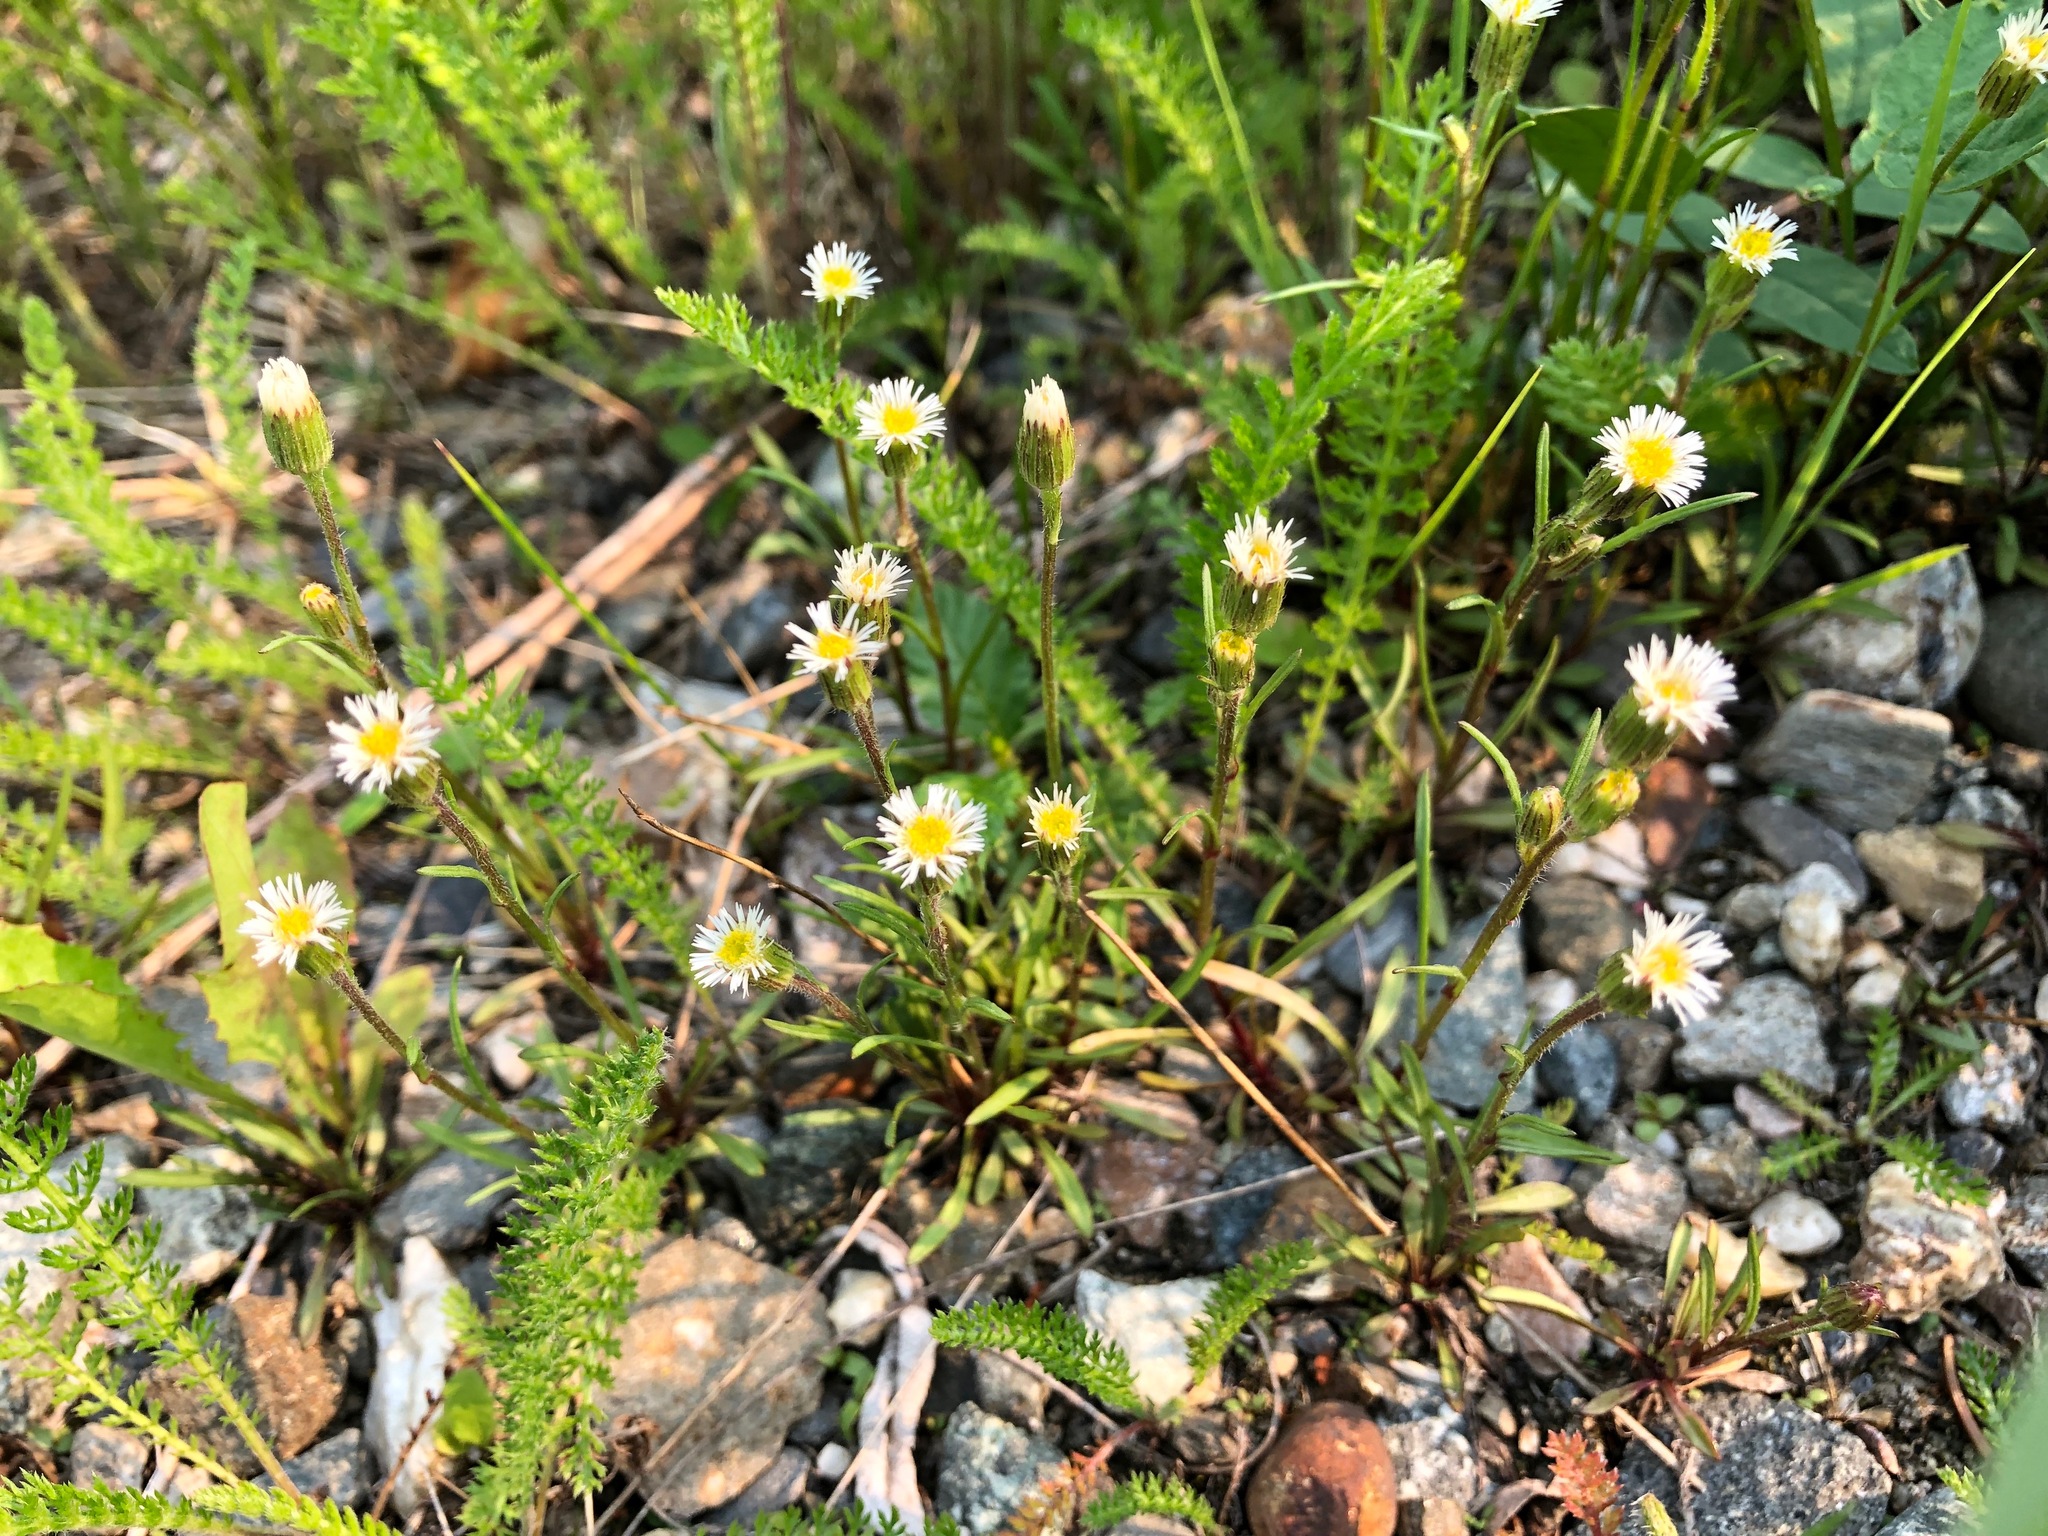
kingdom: Plantae
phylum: Tracheophyta
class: Magnoliopsida
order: Asterales
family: Asteraceae
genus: Erigeron
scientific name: Erigeron lonchophyllus
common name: Short-ray fleabane
